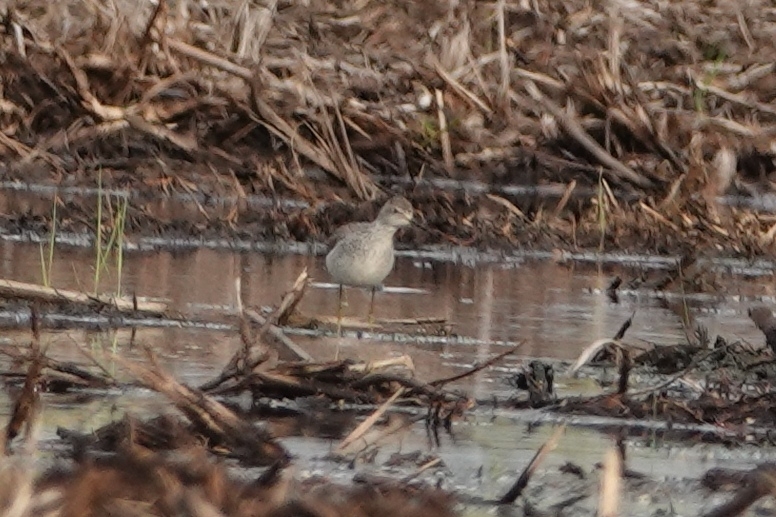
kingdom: Animalia
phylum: Chordata
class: Aves
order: Charadriiformes
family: Scolopacidae
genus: Tringa
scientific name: Tringa stagnatilis
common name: Marsh sandpiper
